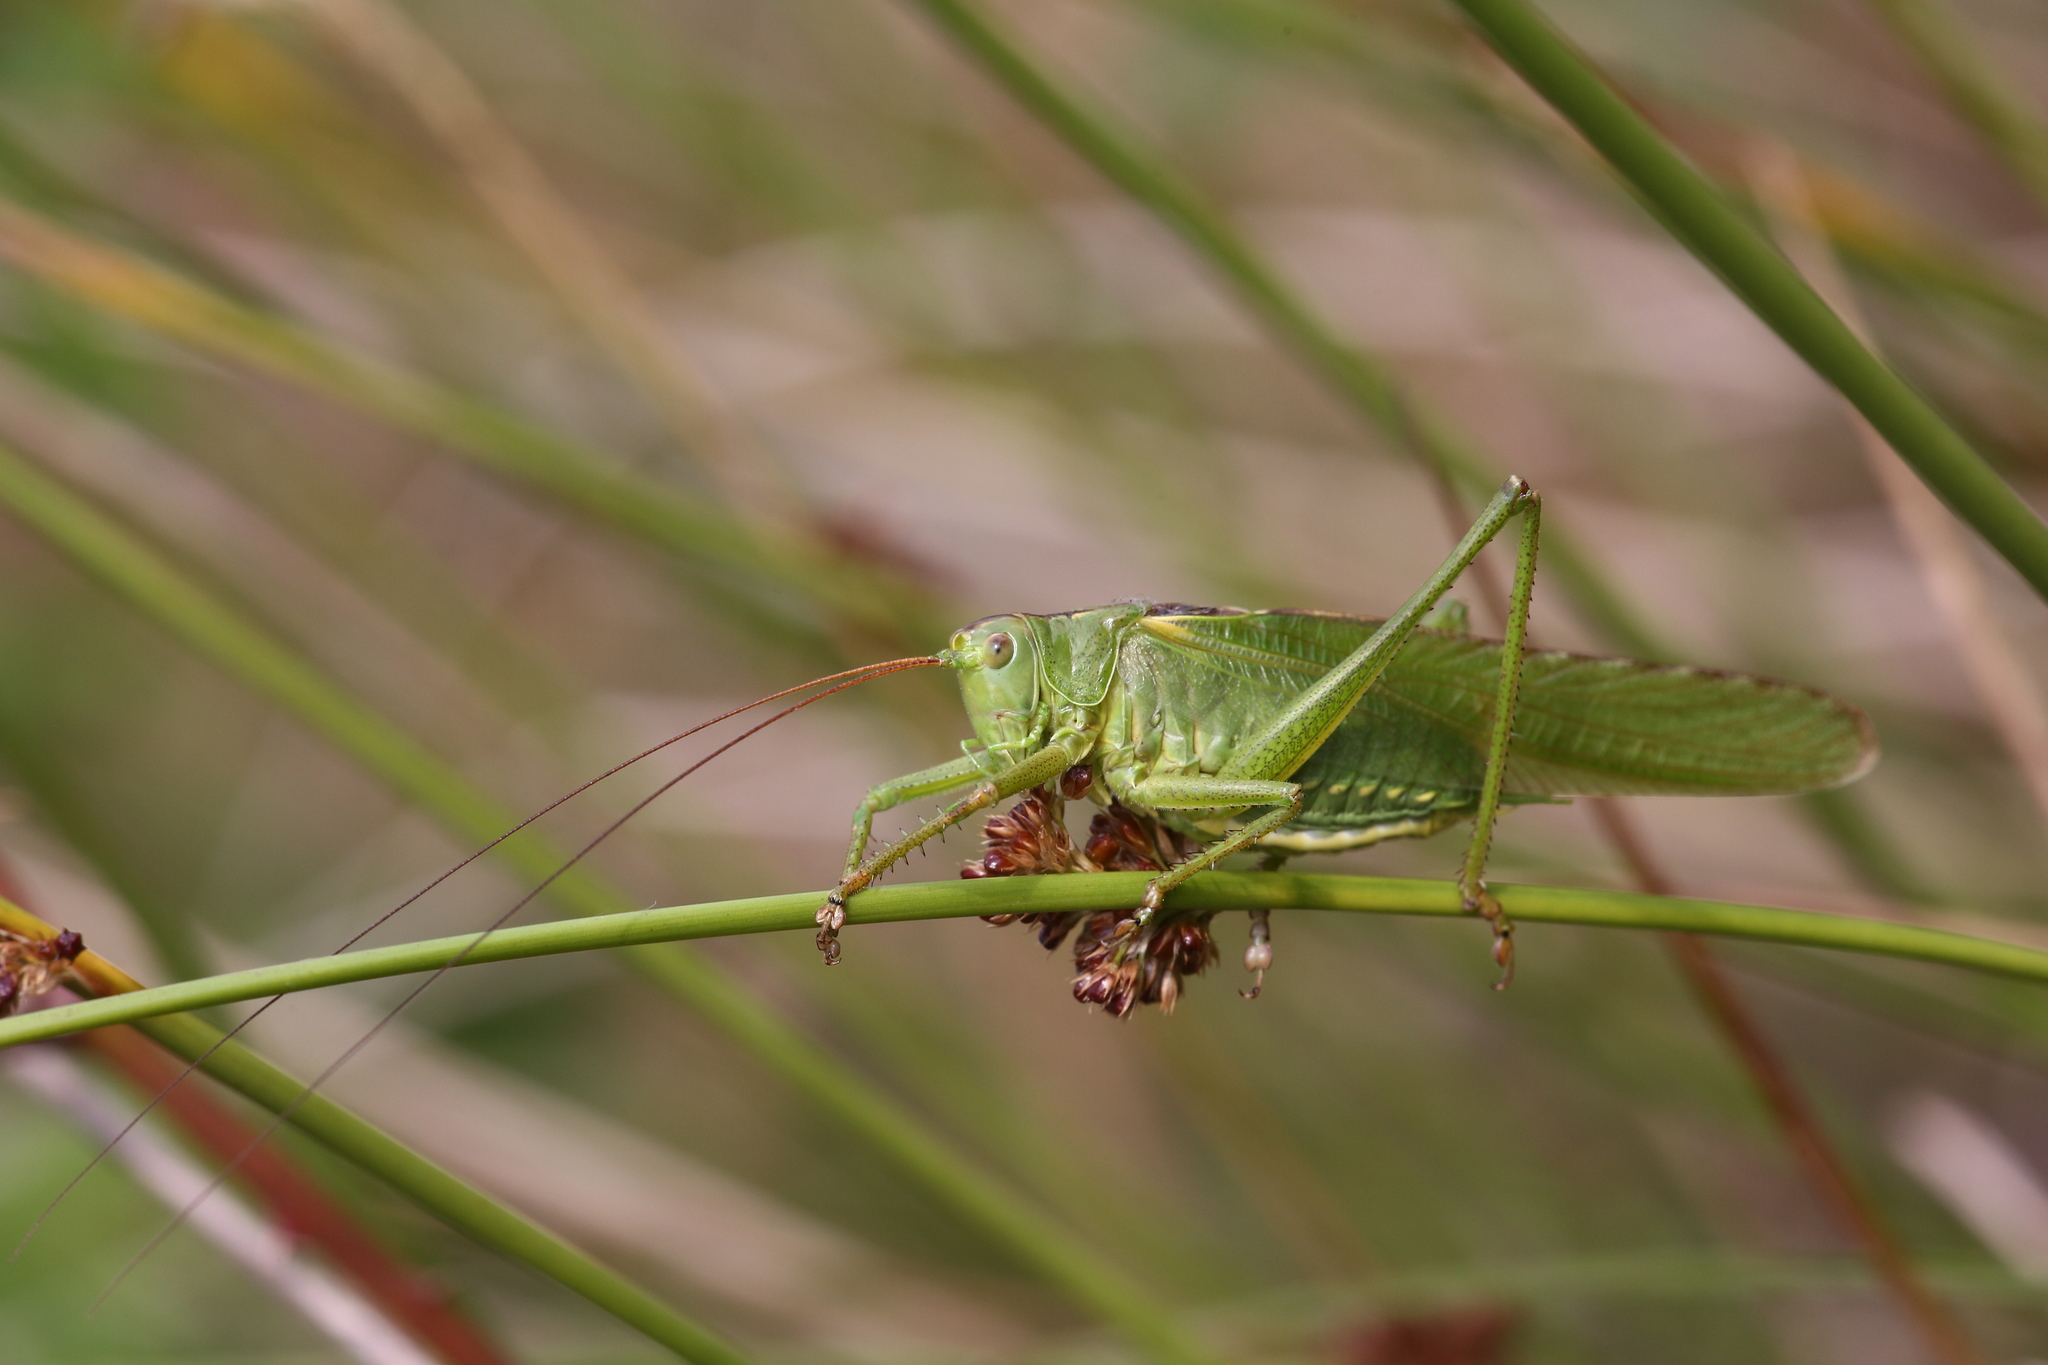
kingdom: Animalia
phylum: Arthropoda
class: Insecta
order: Orthoptera
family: Tettigoniidae
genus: Tettigonia
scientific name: Tettigonia viridissima
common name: Great green bush-cricket
